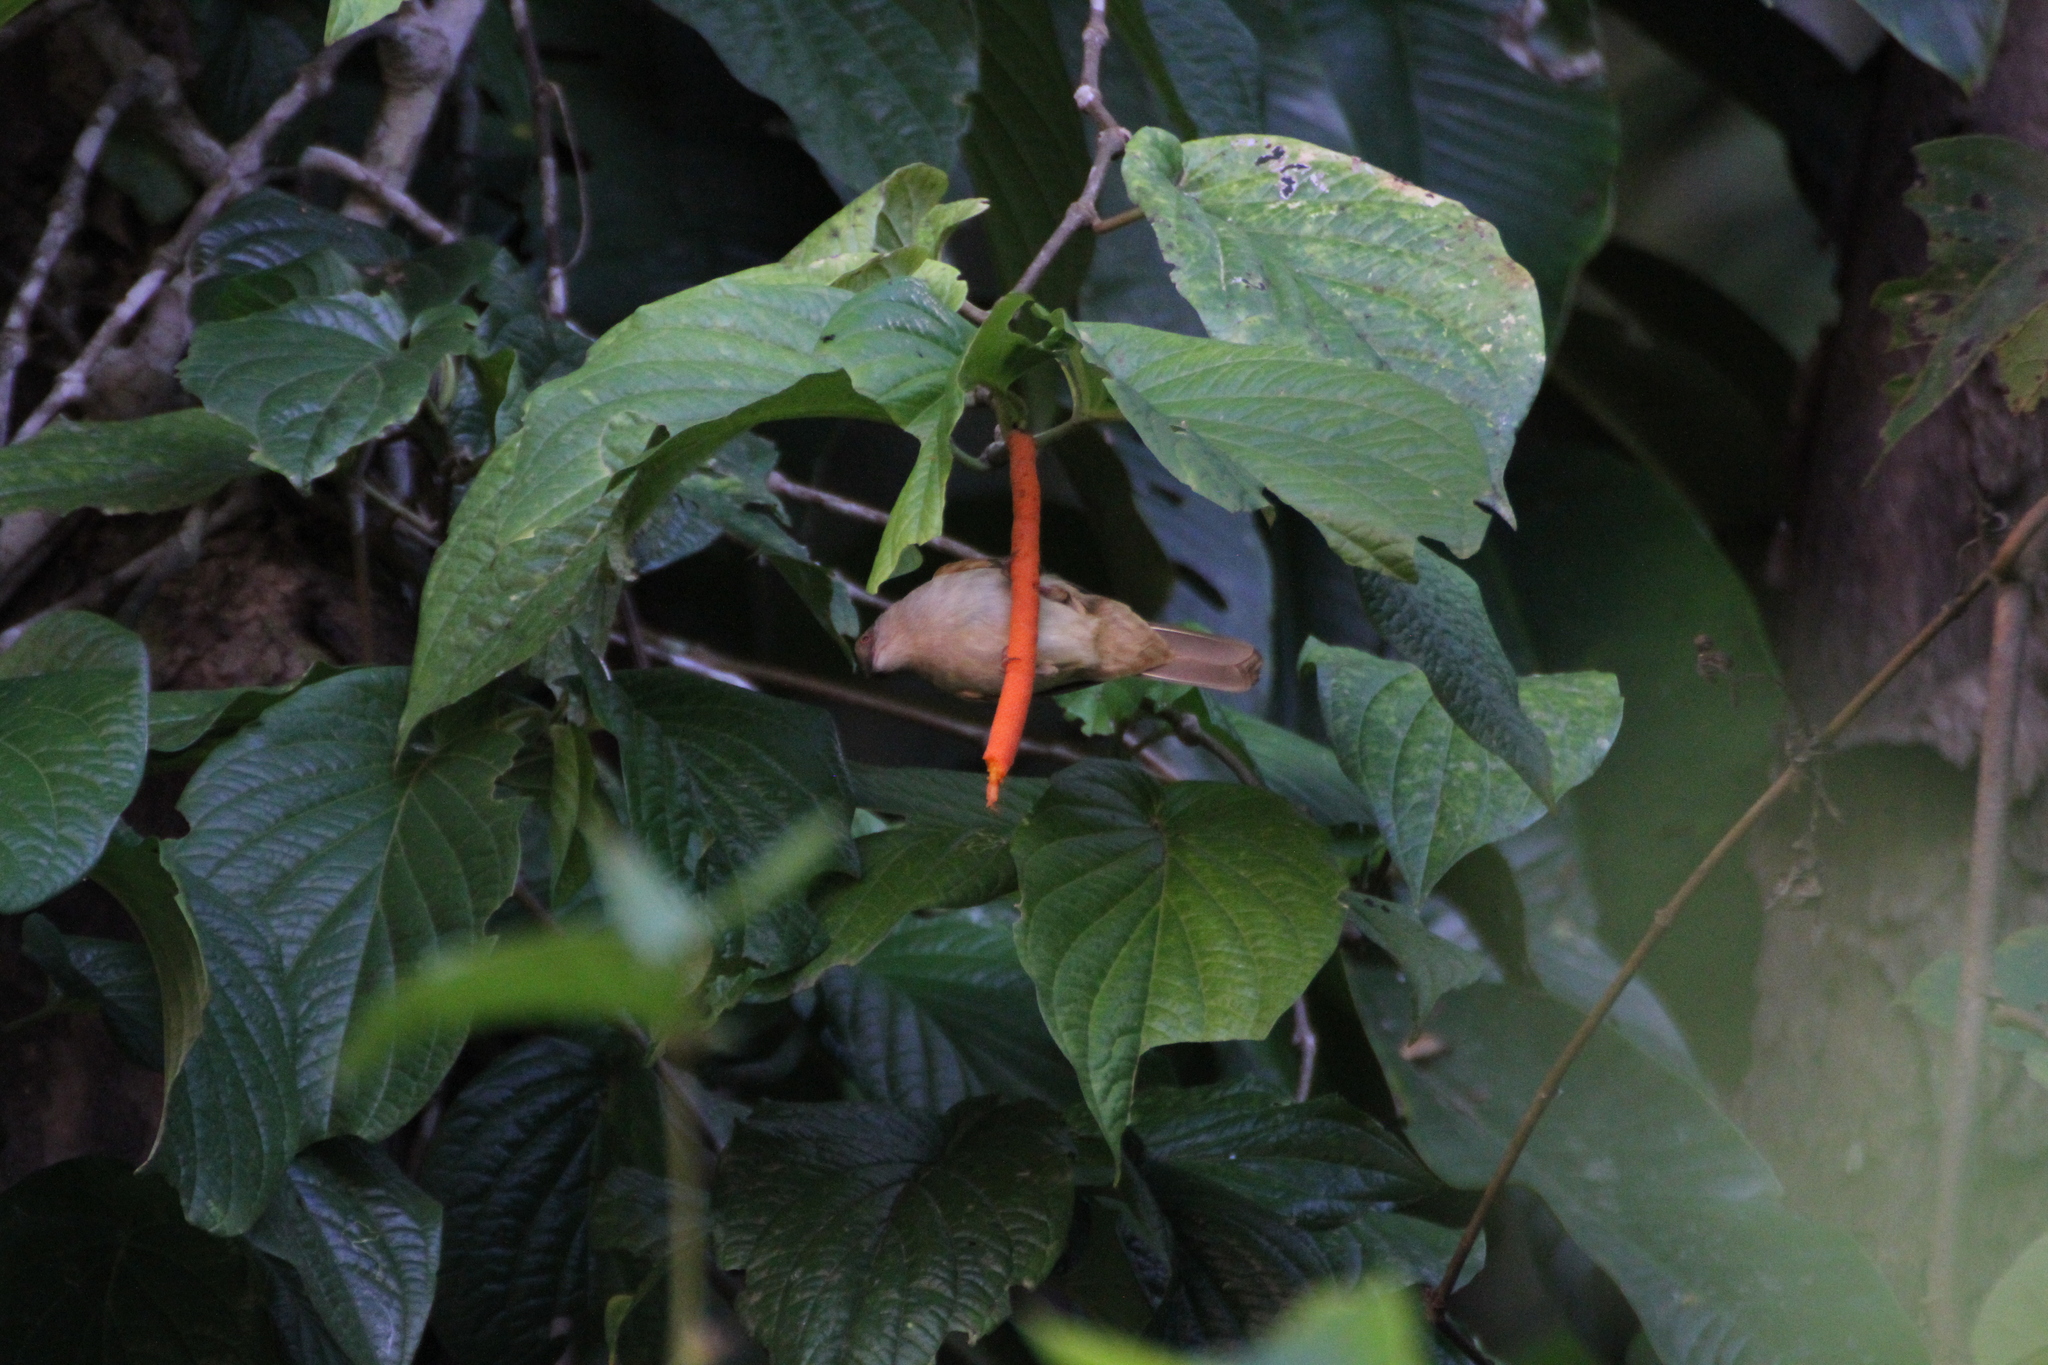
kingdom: Animalia
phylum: Chordata
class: Aves
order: Passeriformes
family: Pycnonotidae
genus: Pycnonotus
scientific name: Pycnonotus plumosus
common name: Olive-winged bulbul
